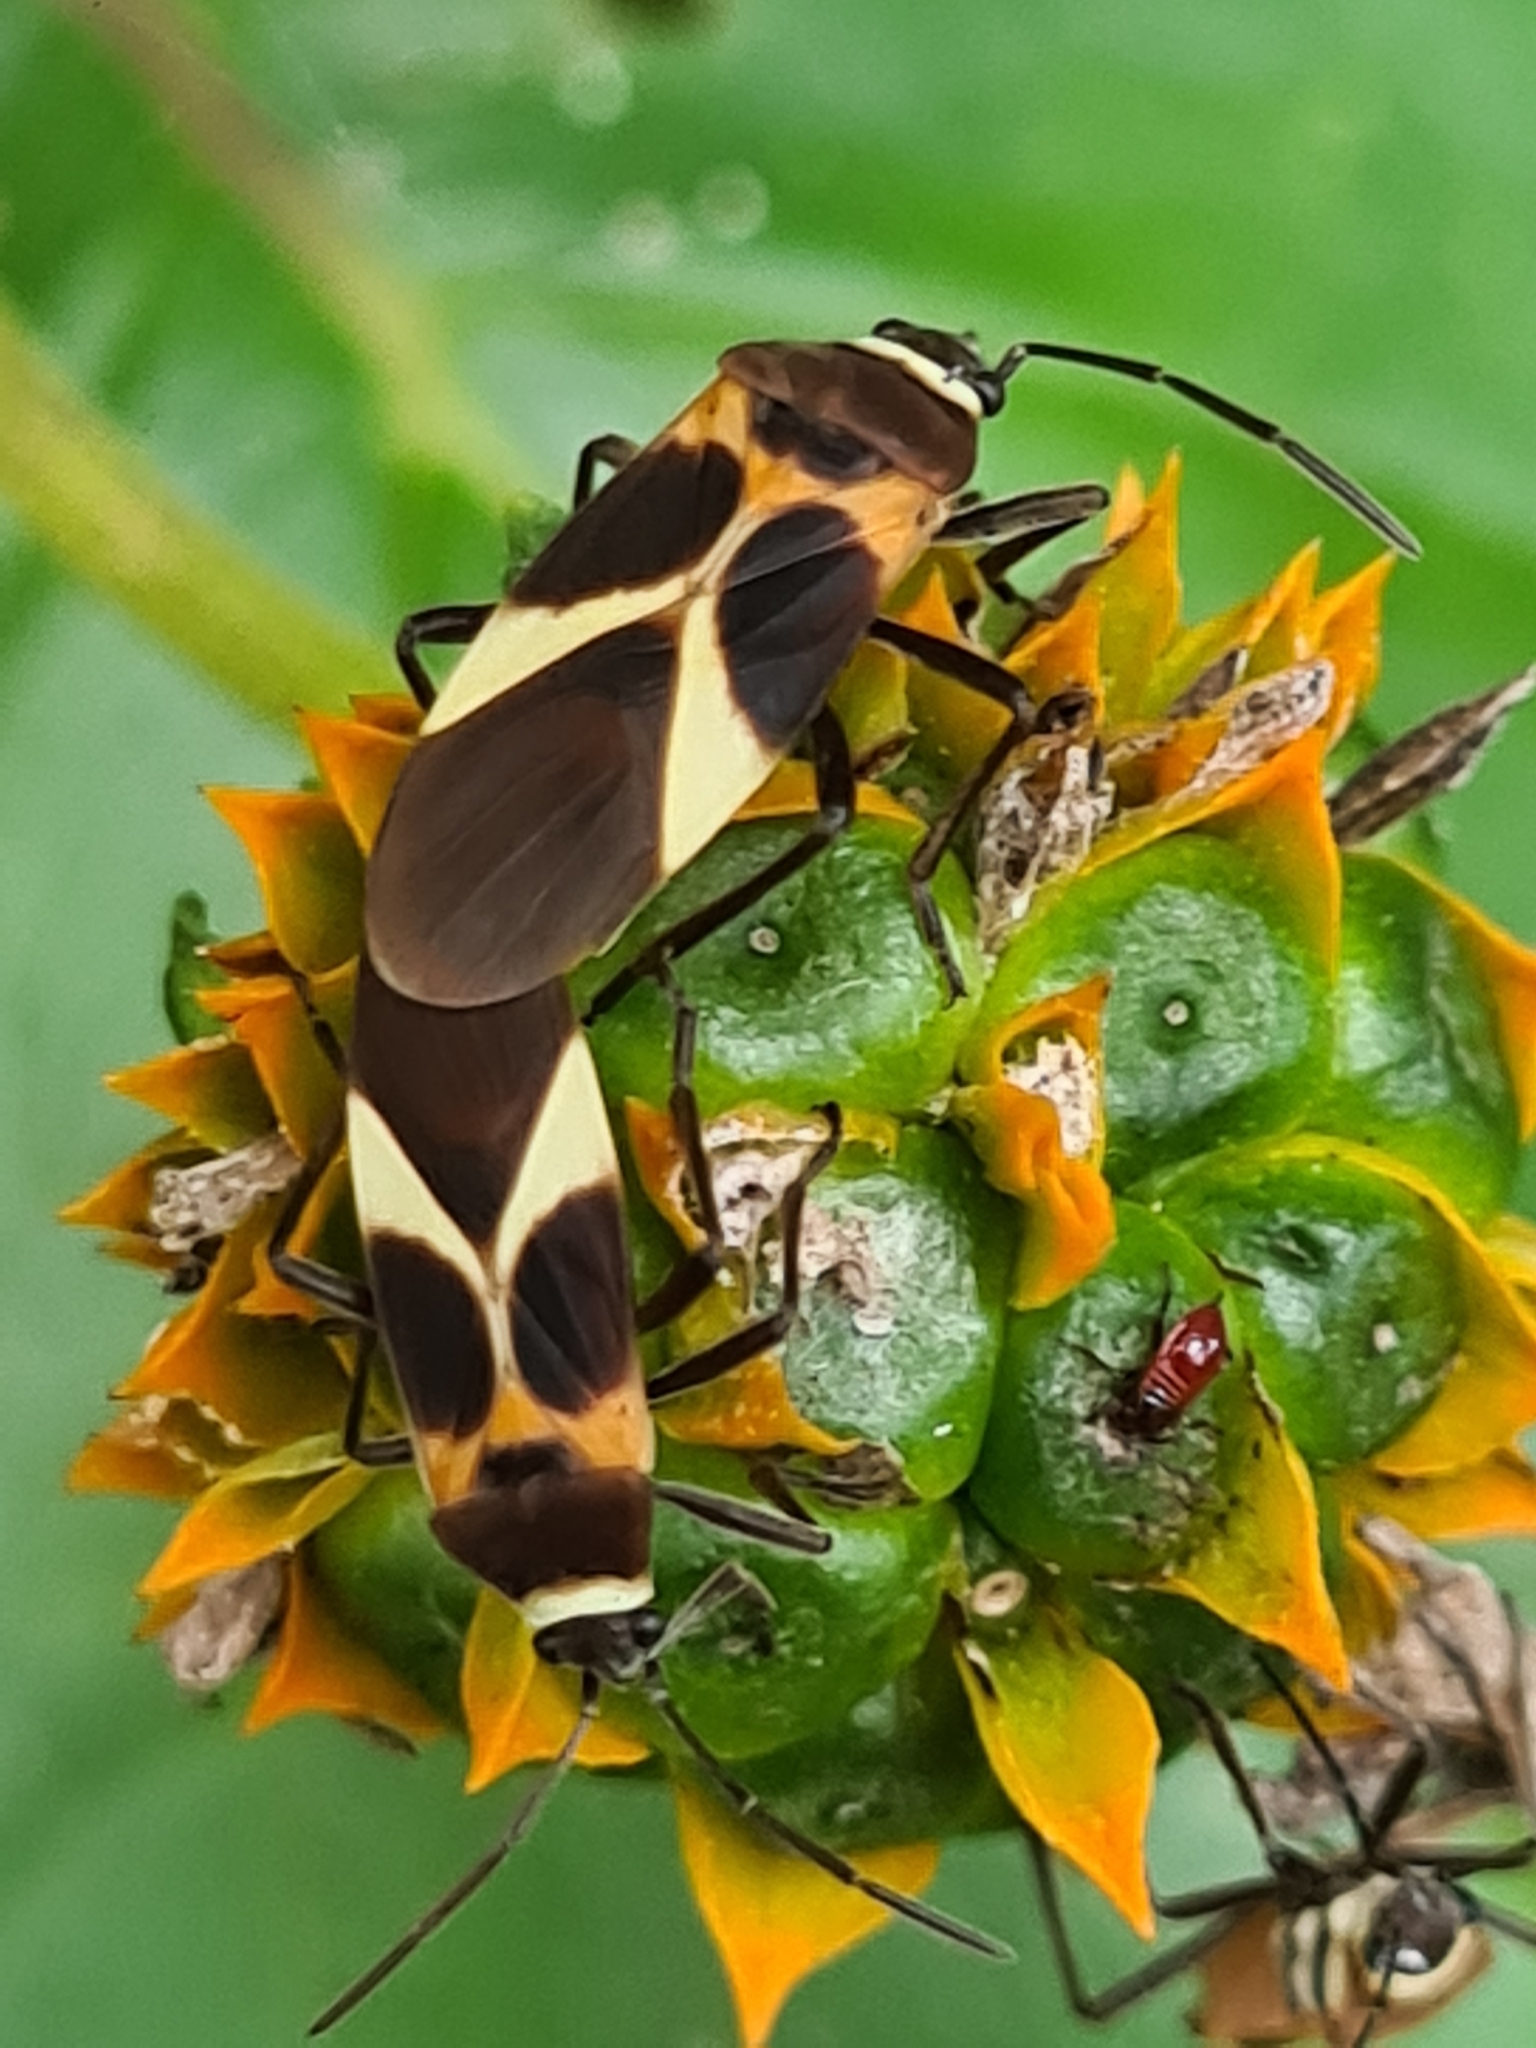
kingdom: Animalia
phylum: Arthropoda
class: Insecta
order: Hemiptera
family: Lygaeidae
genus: Craspeduchus
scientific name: Craspeduchus variegatus
